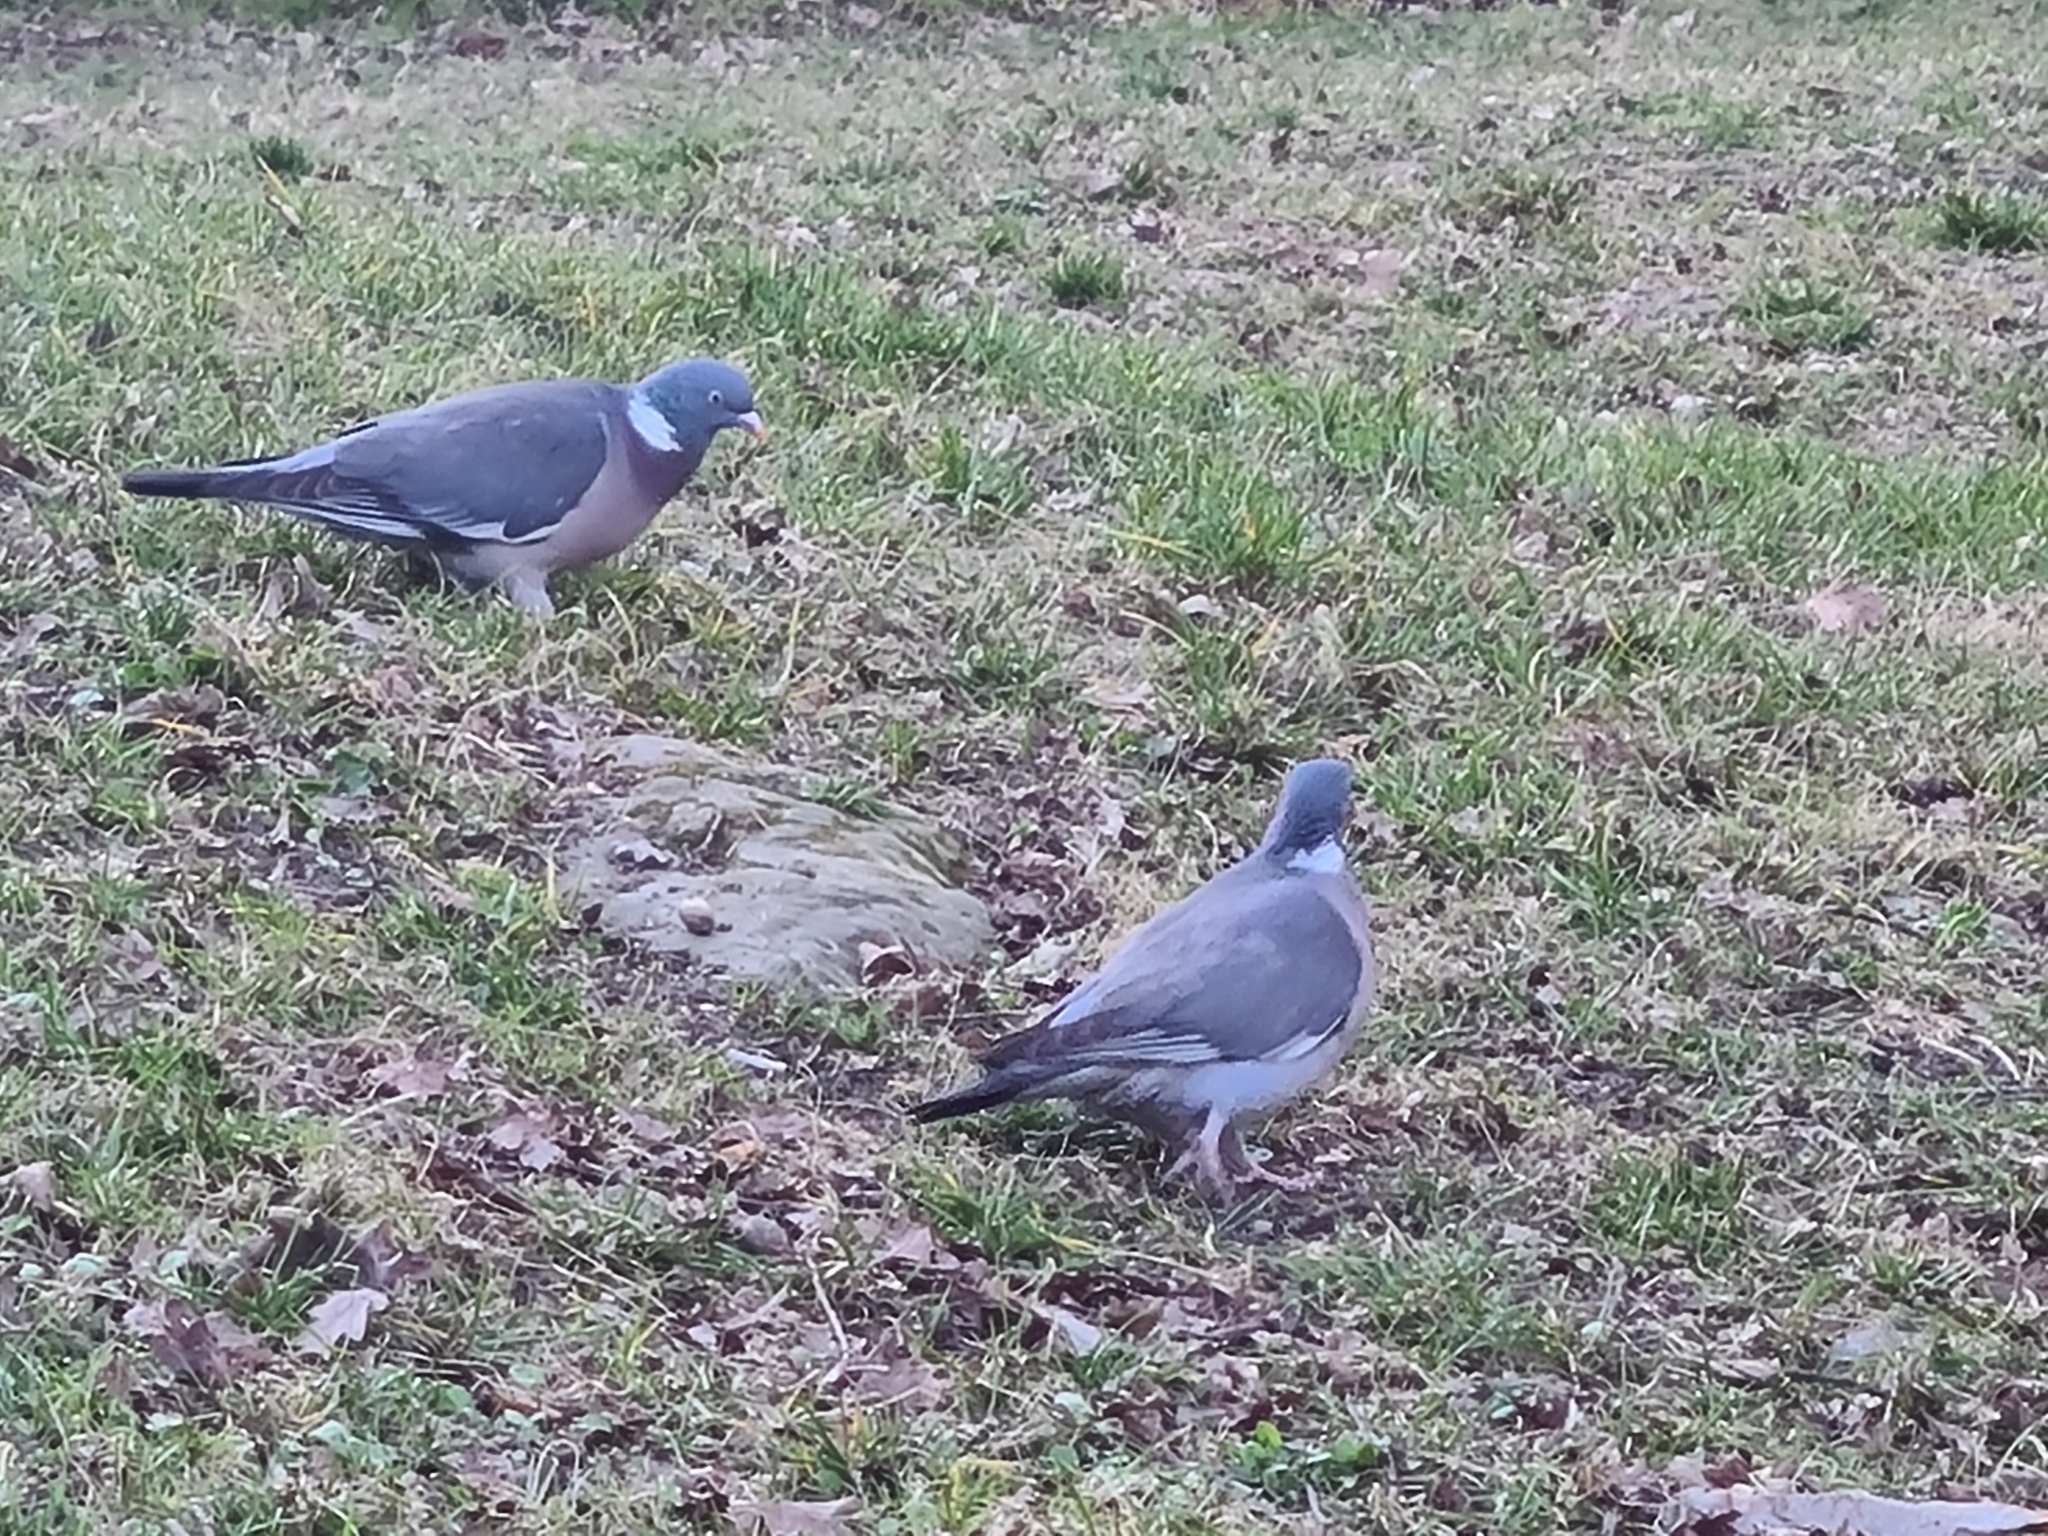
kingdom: Animalia
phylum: Chordata
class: Aves
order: Columbiformes
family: Columbidae
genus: Columba
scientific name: Columba palumbus
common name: Common wood pigeon
